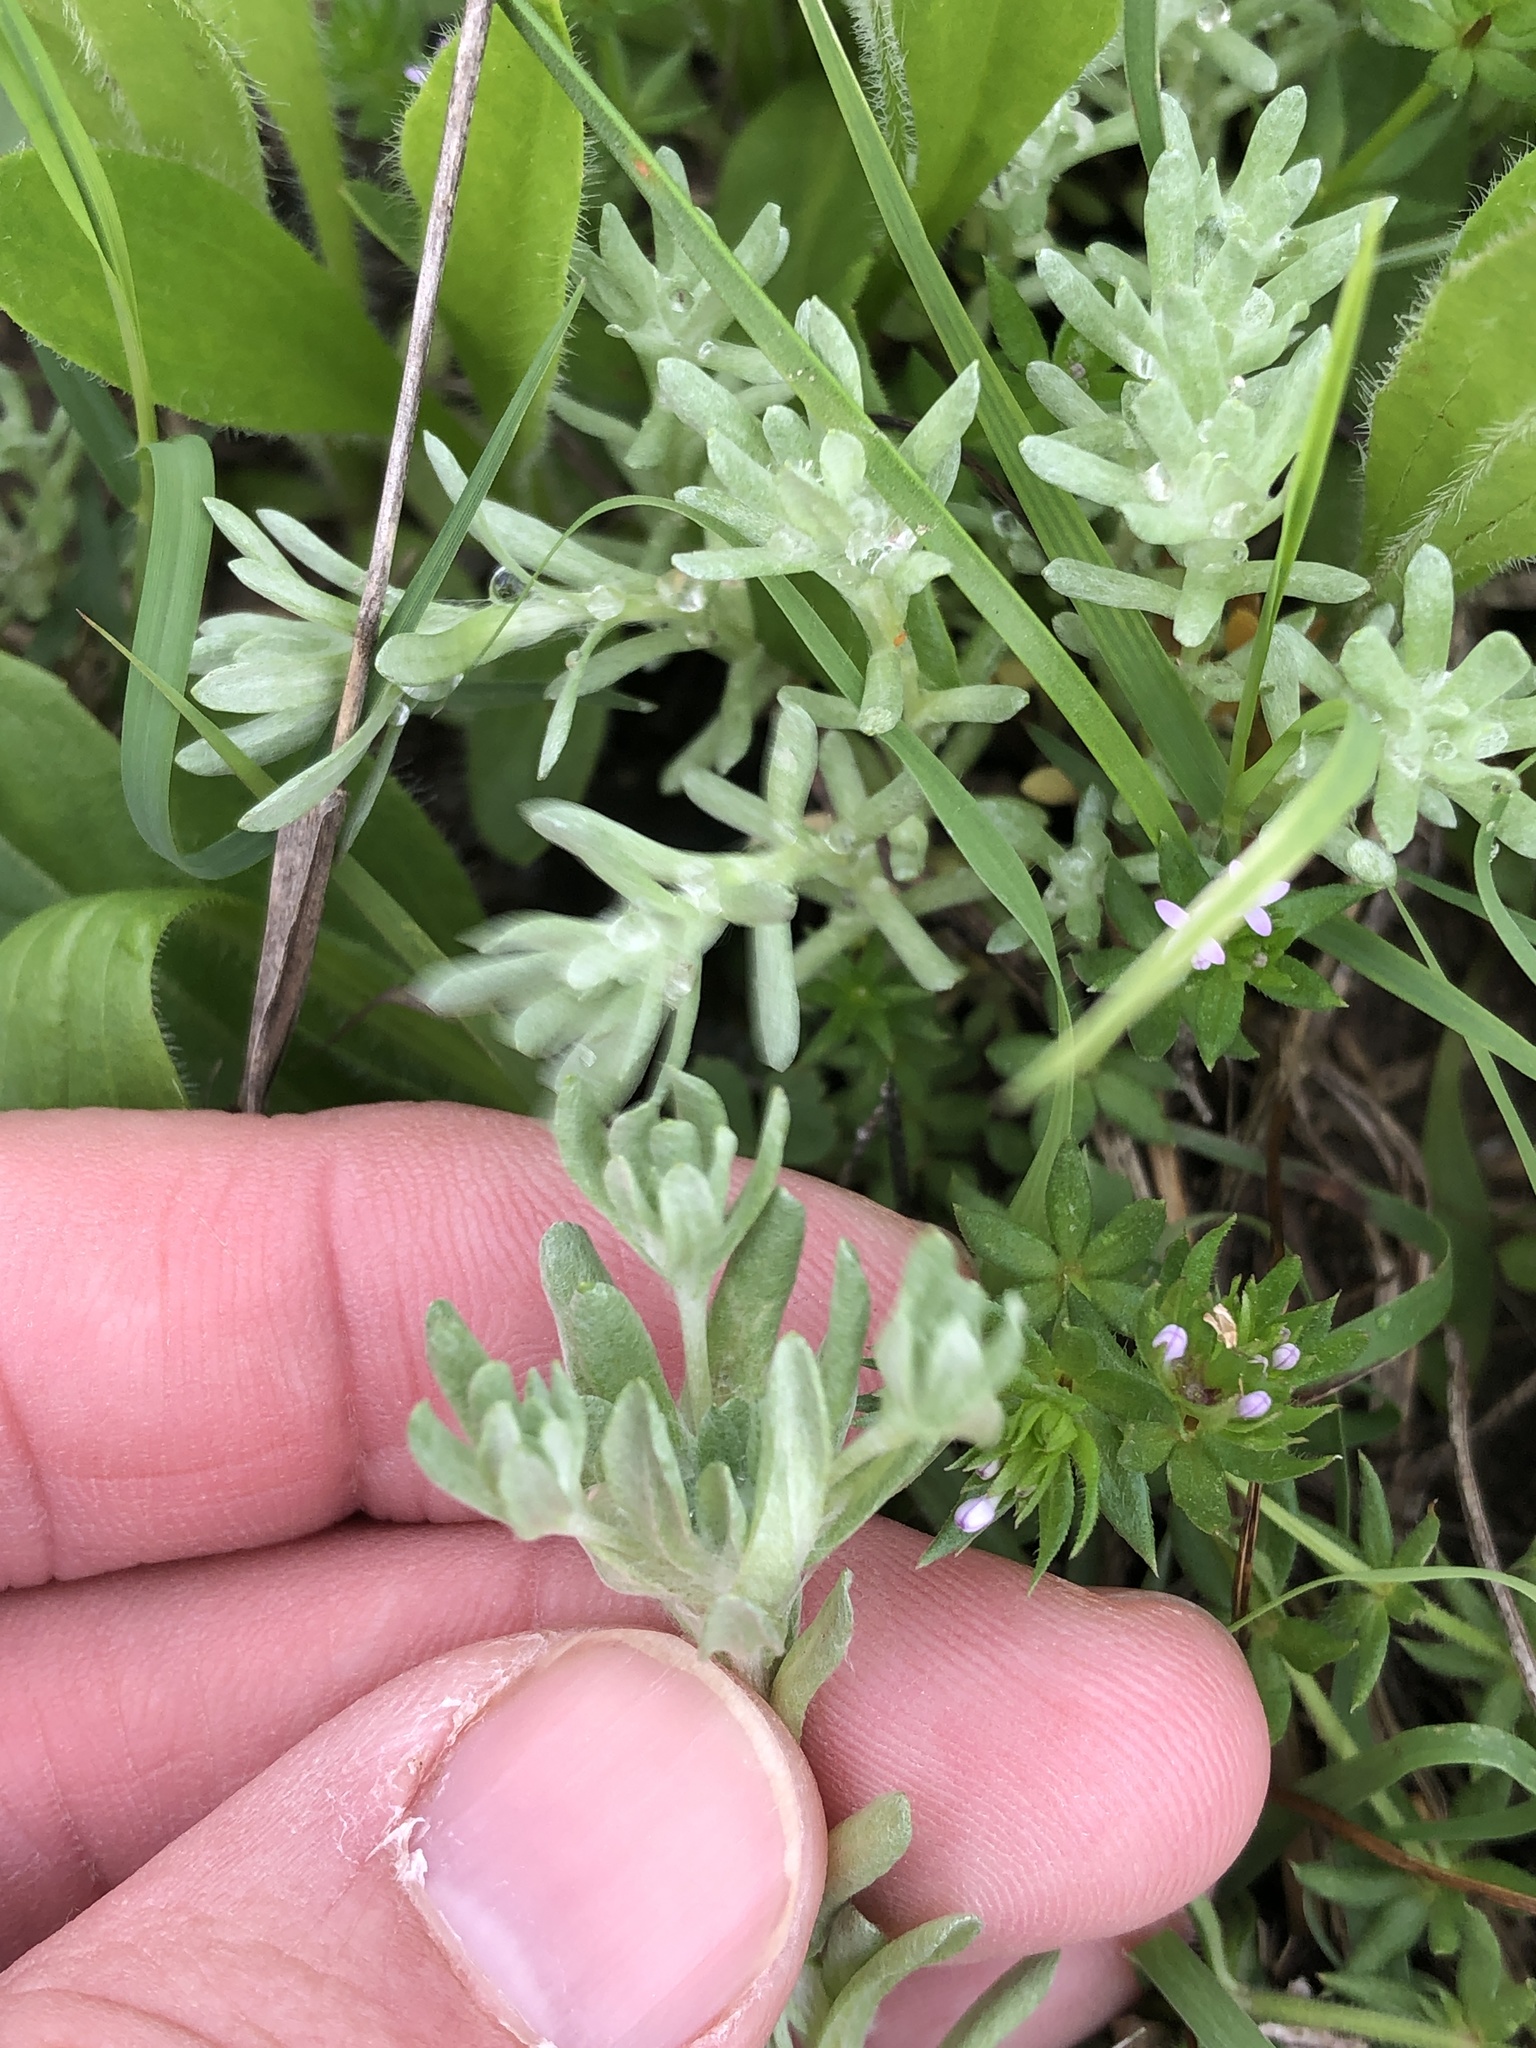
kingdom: Plantae
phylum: Tracheophyta
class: Magnoliopsida
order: Asterales
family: Asteraceae
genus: Diaperia
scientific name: Diaperia prolifera
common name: Big-head rabbit-tobacco
